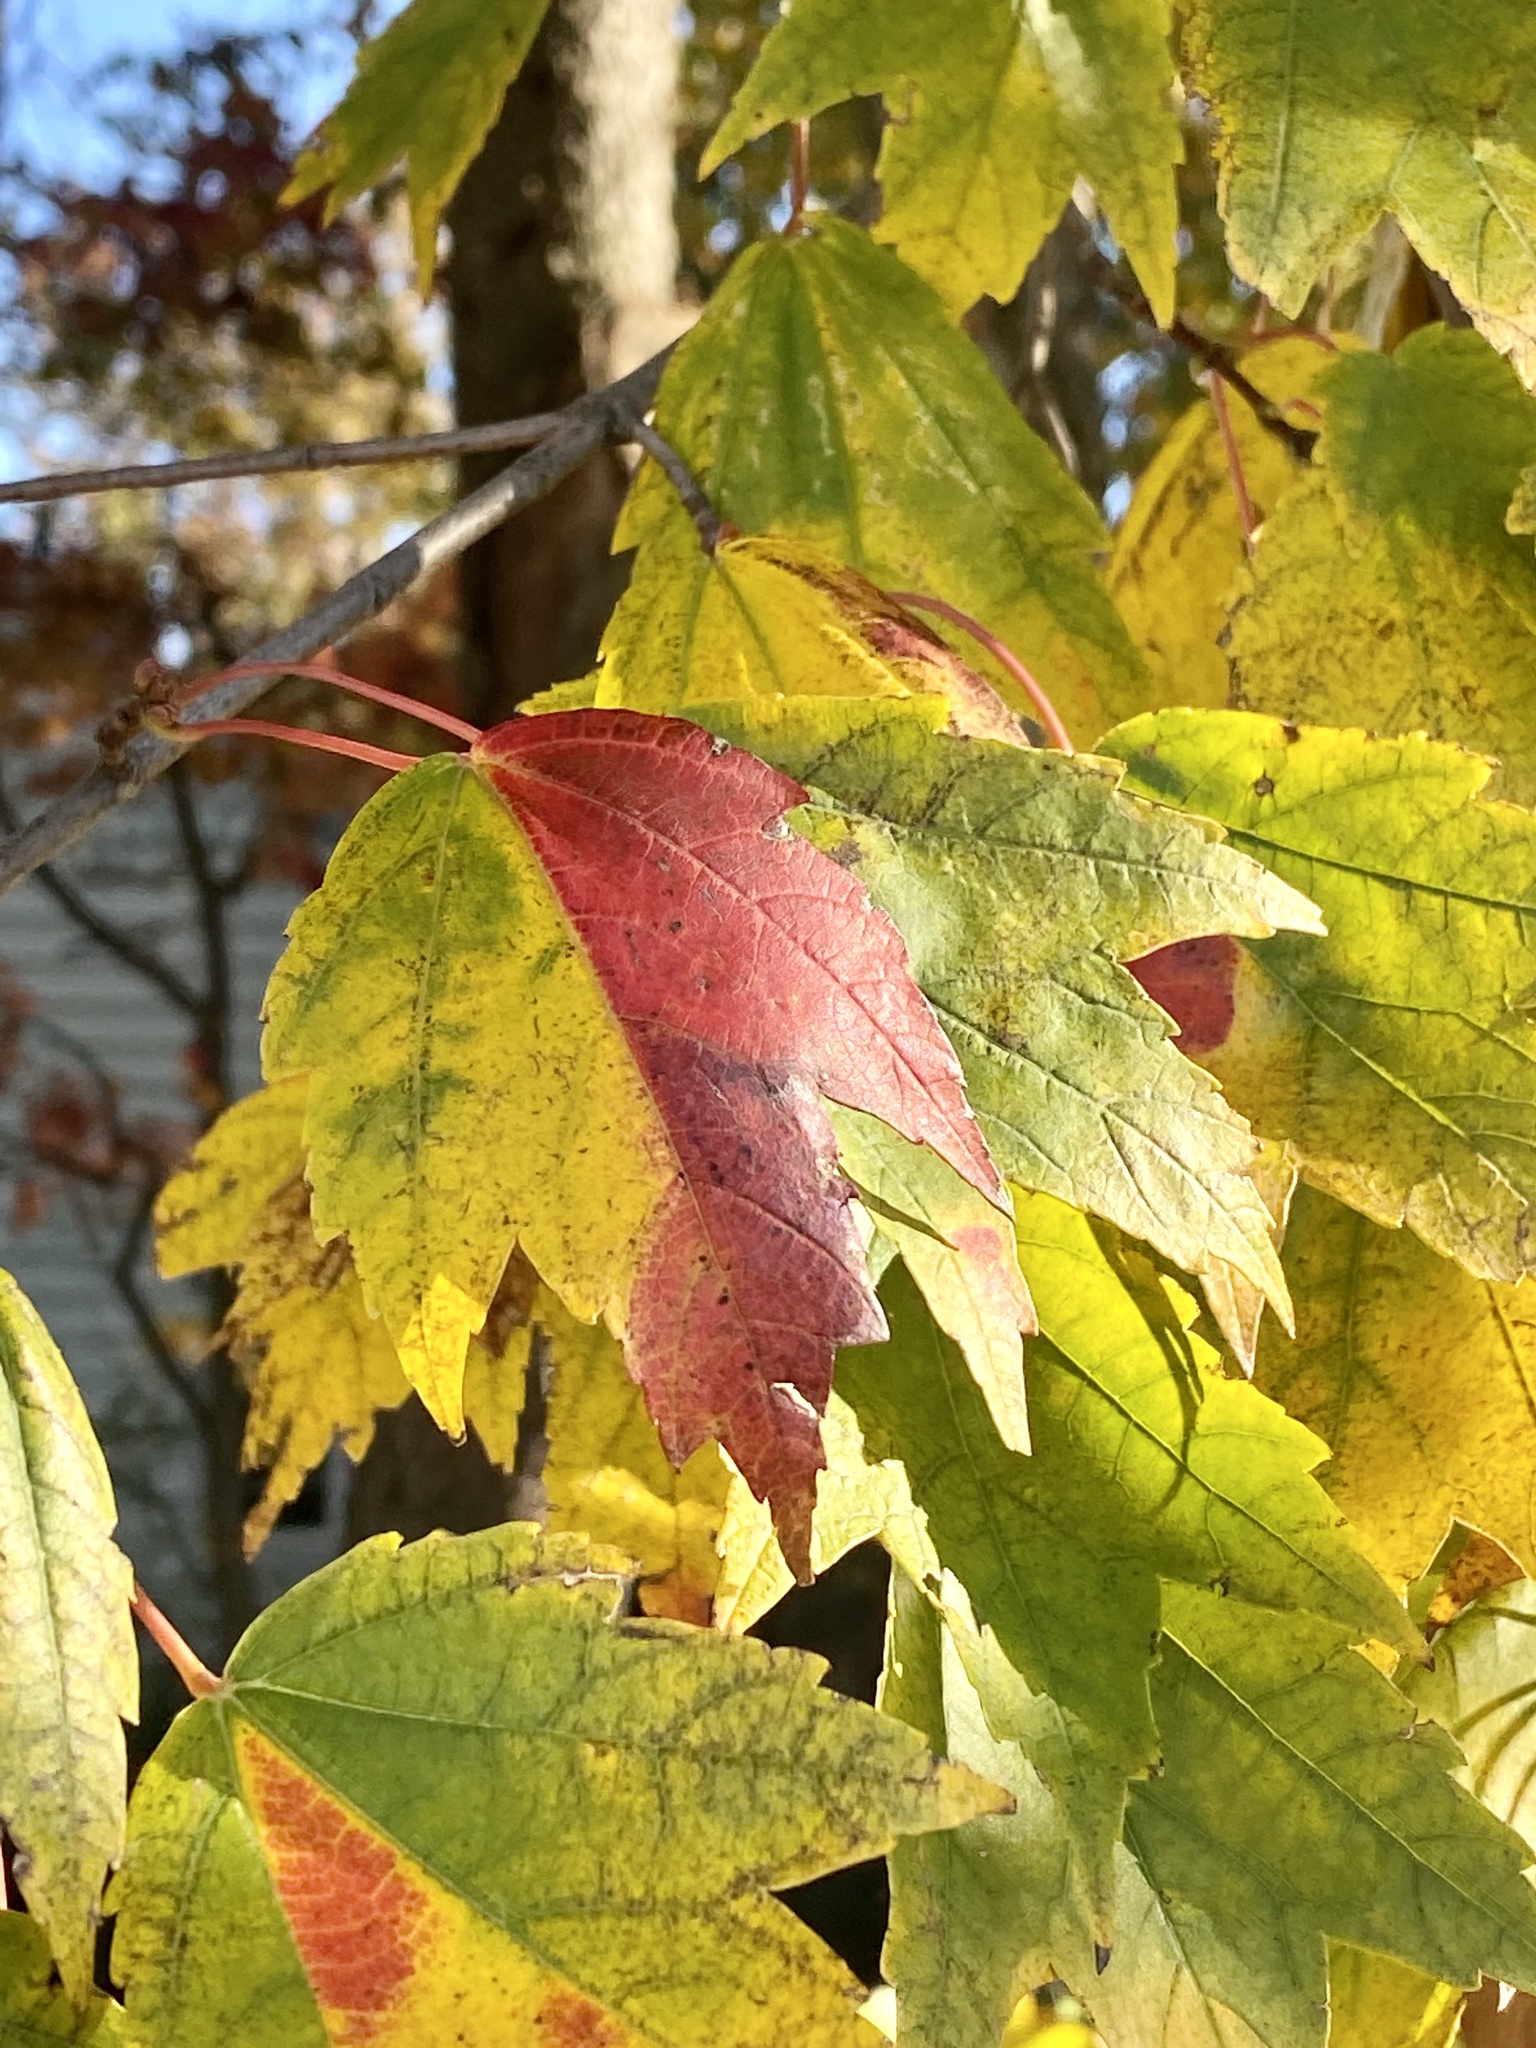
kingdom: Plantae
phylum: Tracheophyta
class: Magnoliopsida
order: Sapindales
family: Sapindaceae
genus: Acer
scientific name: Acer rubrum
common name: Red maple
